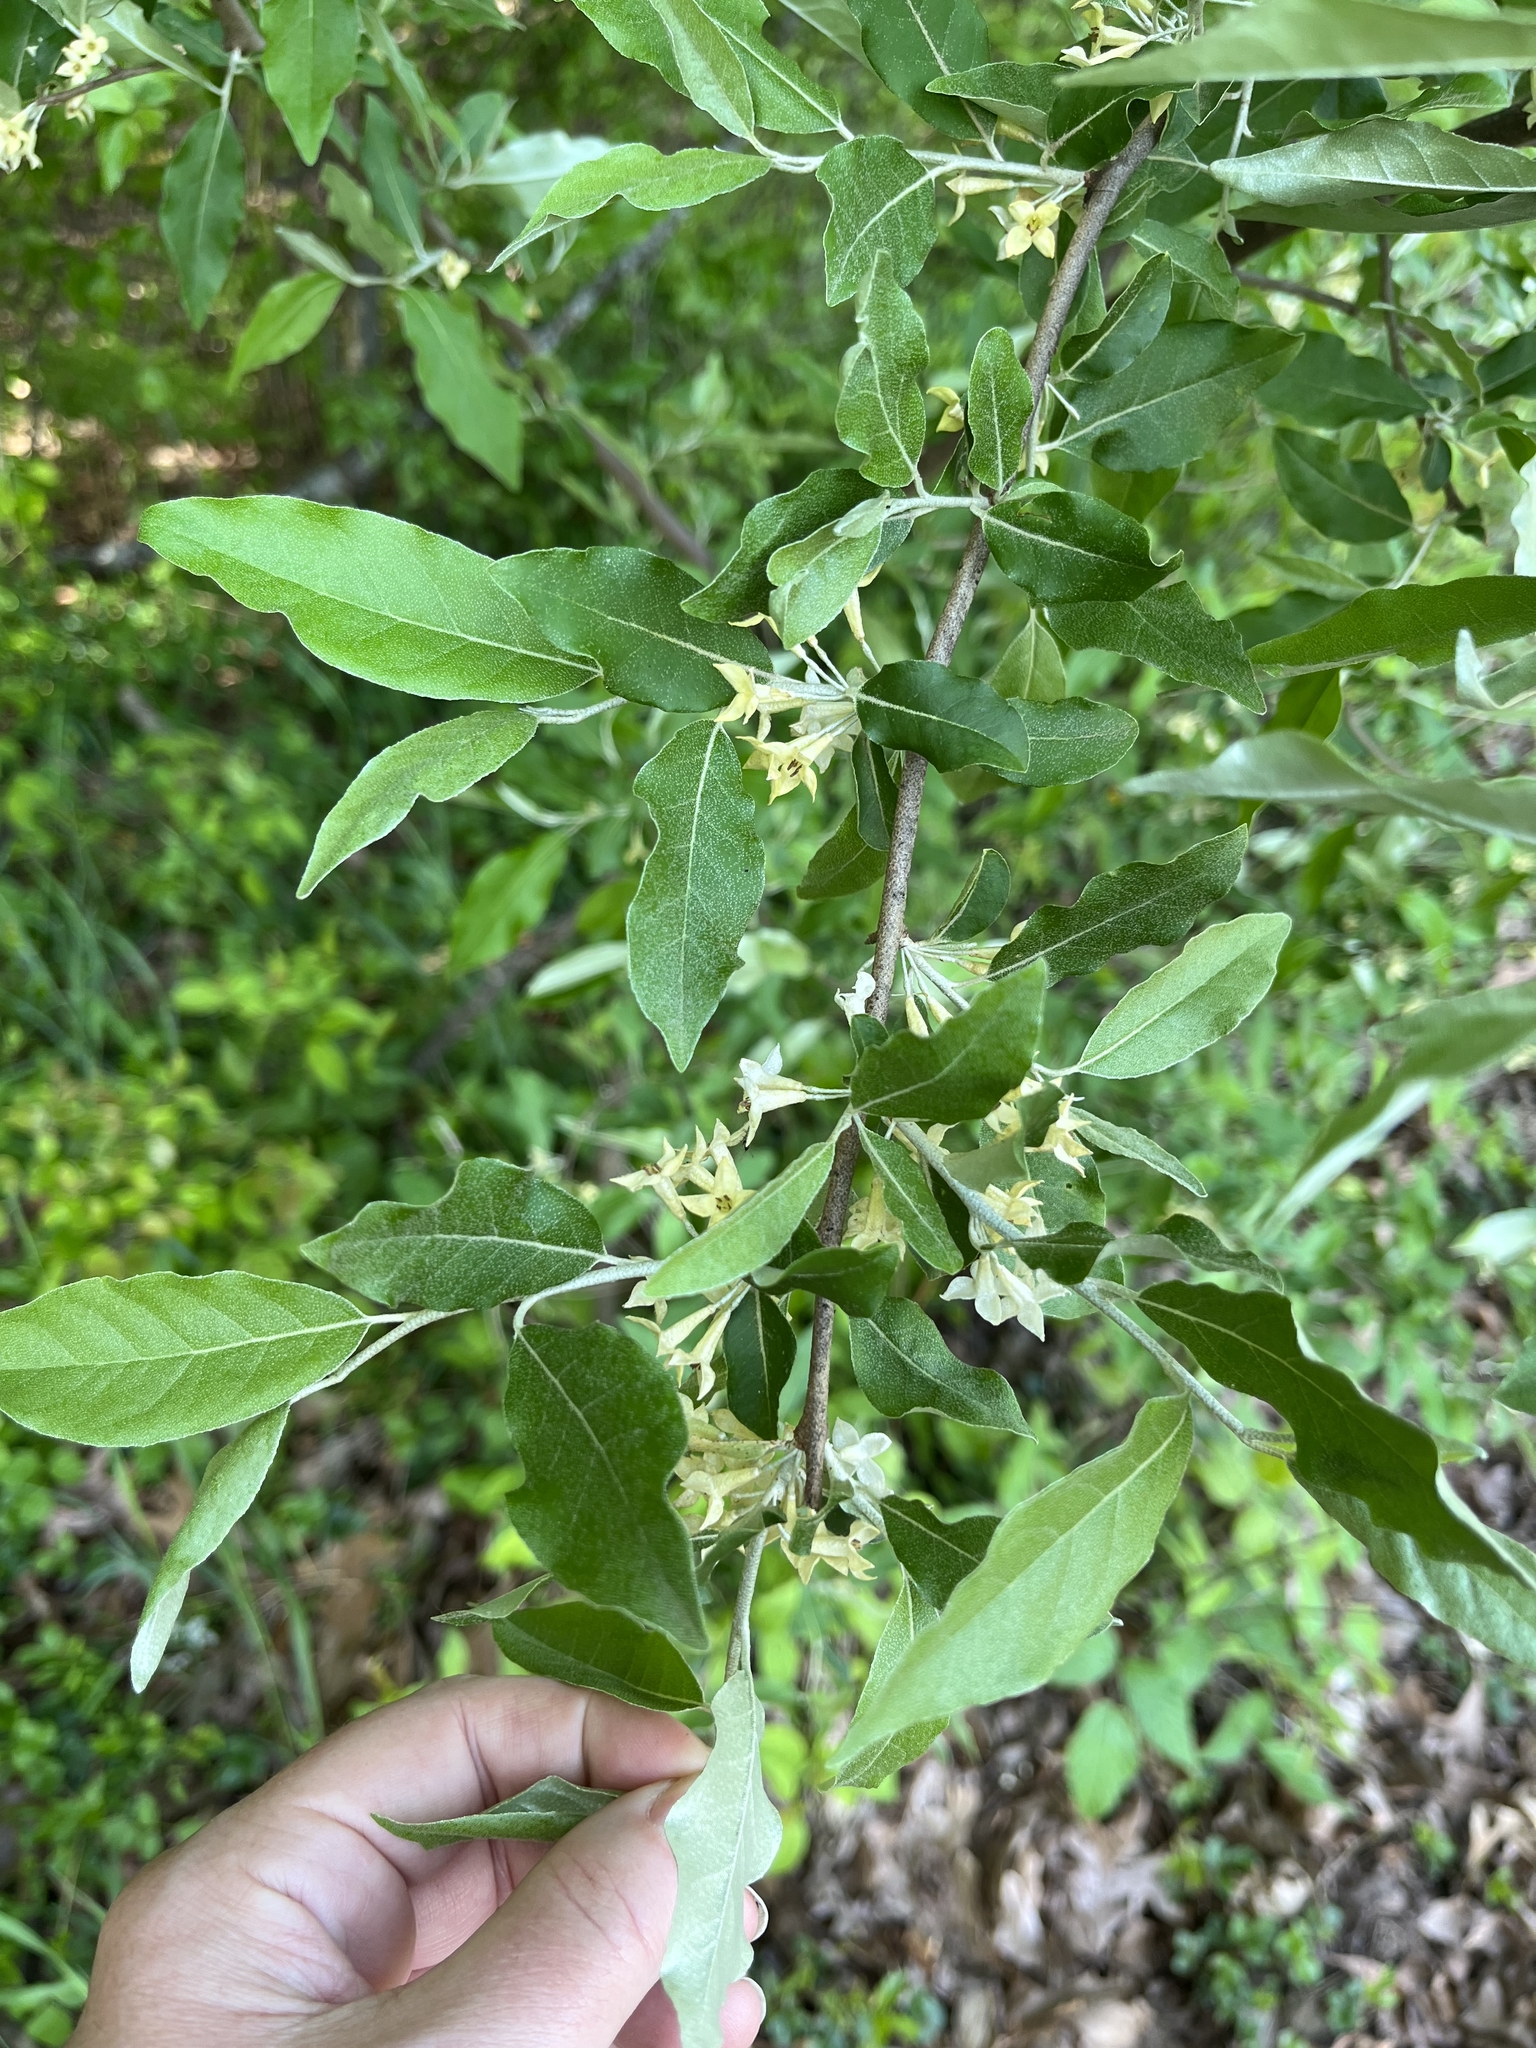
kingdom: Plantae
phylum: Tracheophyta
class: Magnoliopsida
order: Rosales
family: Elaeagnaceae
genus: Elaeagnus
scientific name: Elaeagnus umbellata
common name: Autumn olive
